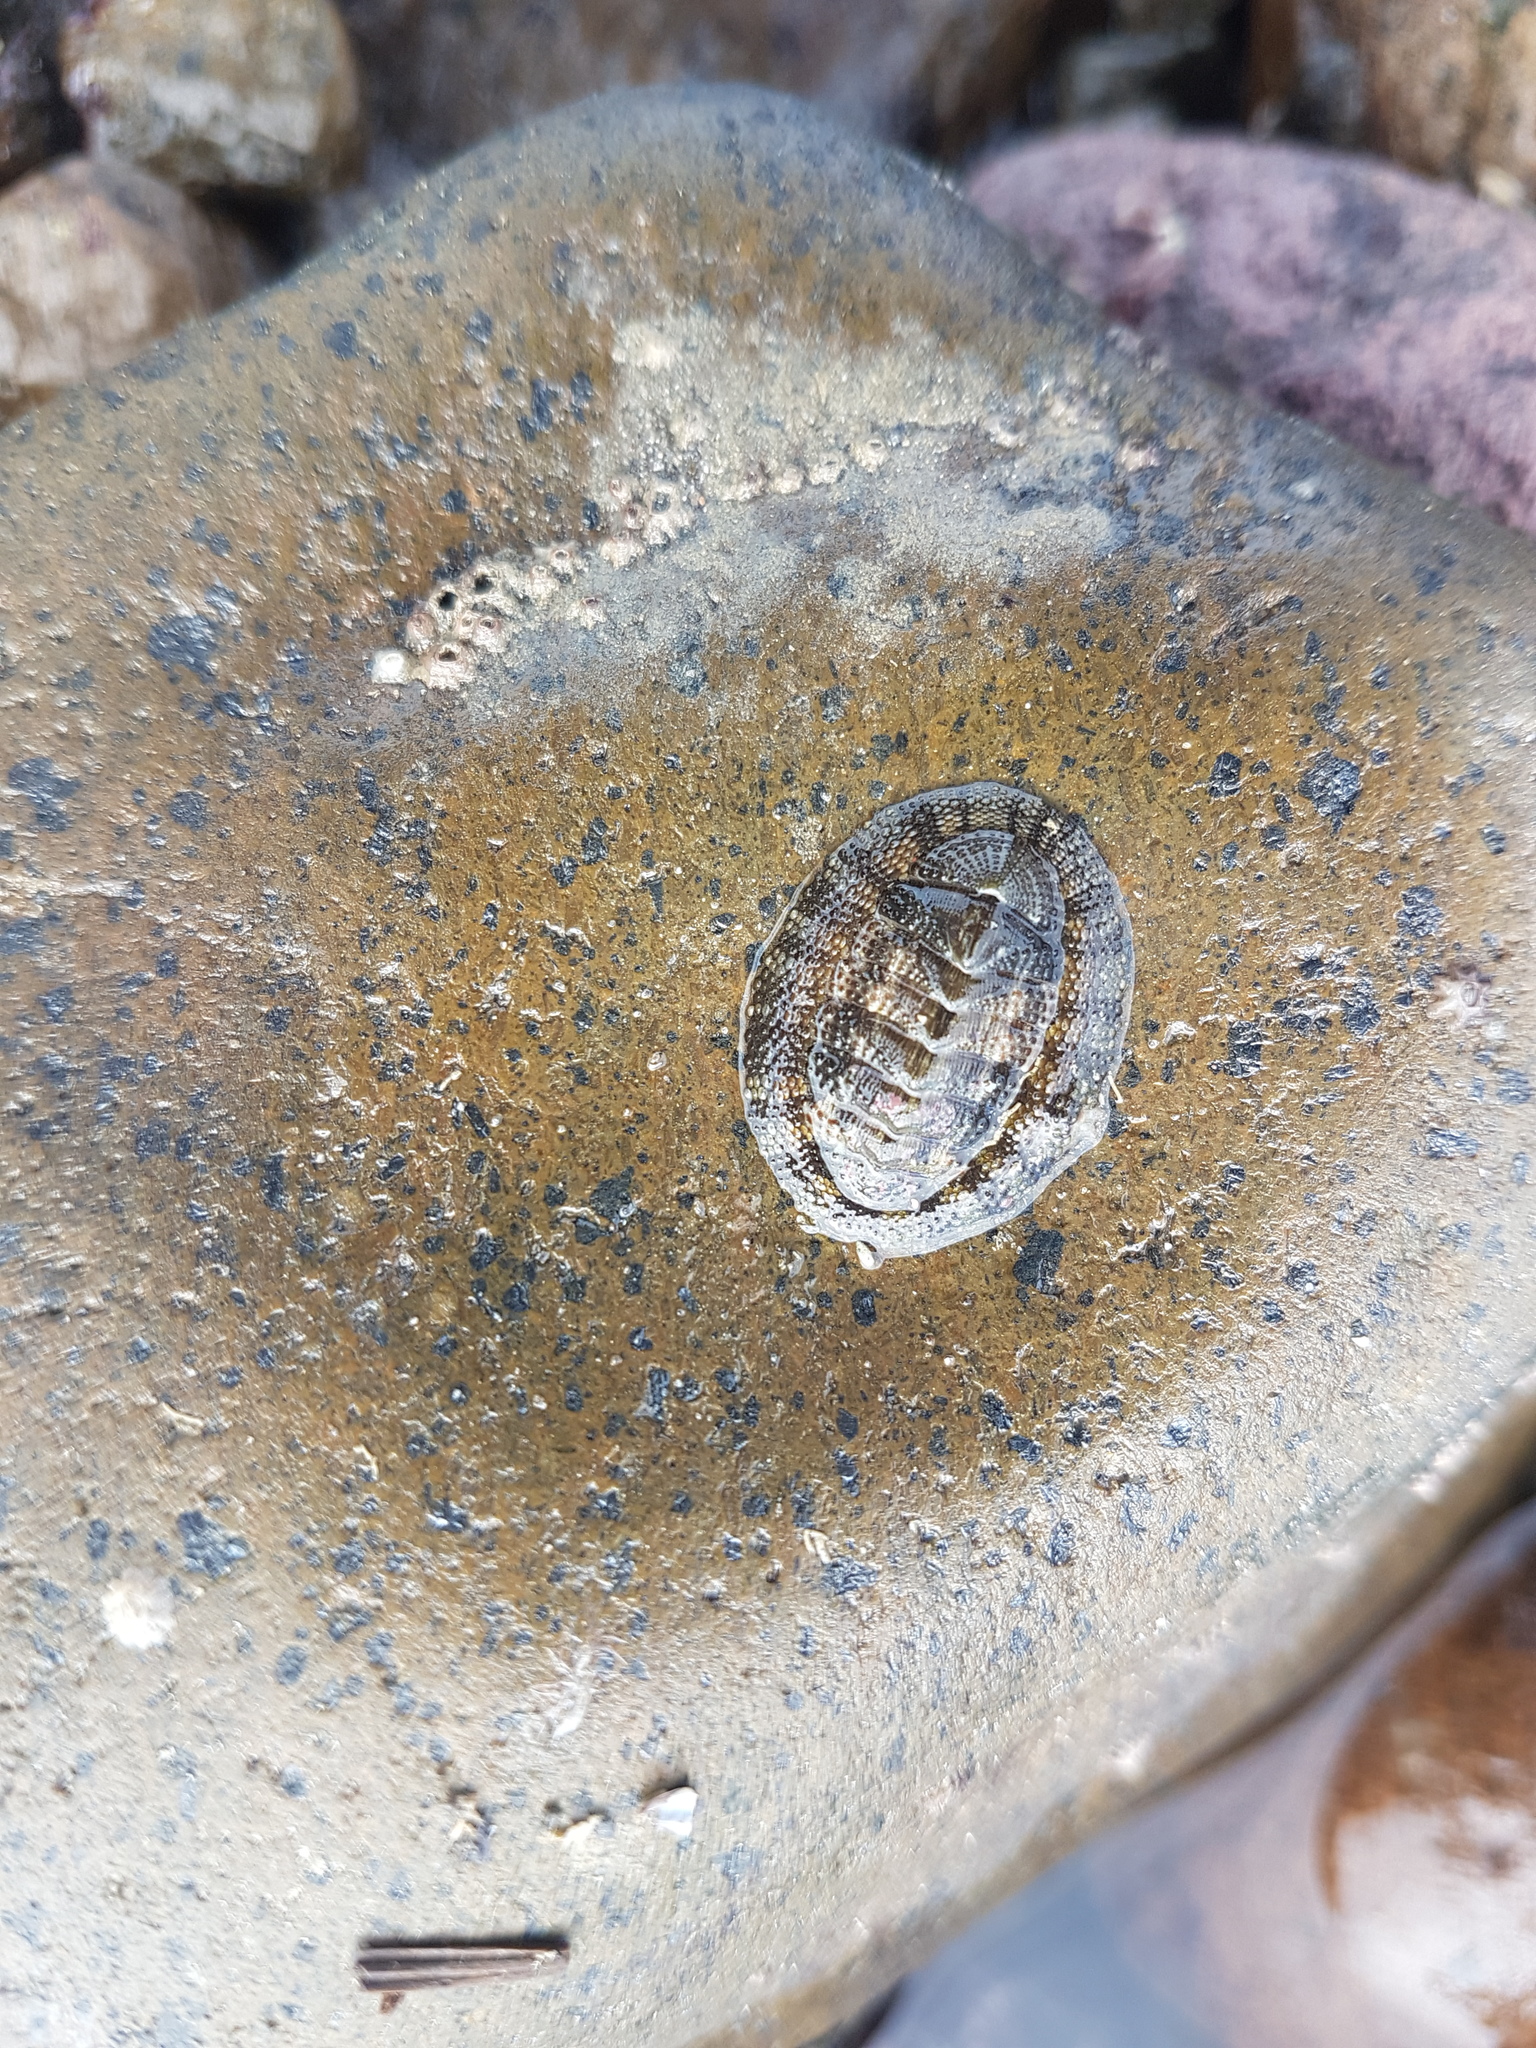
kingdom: Animalia
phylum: Mollusca
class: Polyplacophora
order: Chitonida
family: Chitonidae
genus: Sypharochiton
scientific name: Sypharochiton pelliserpentis
